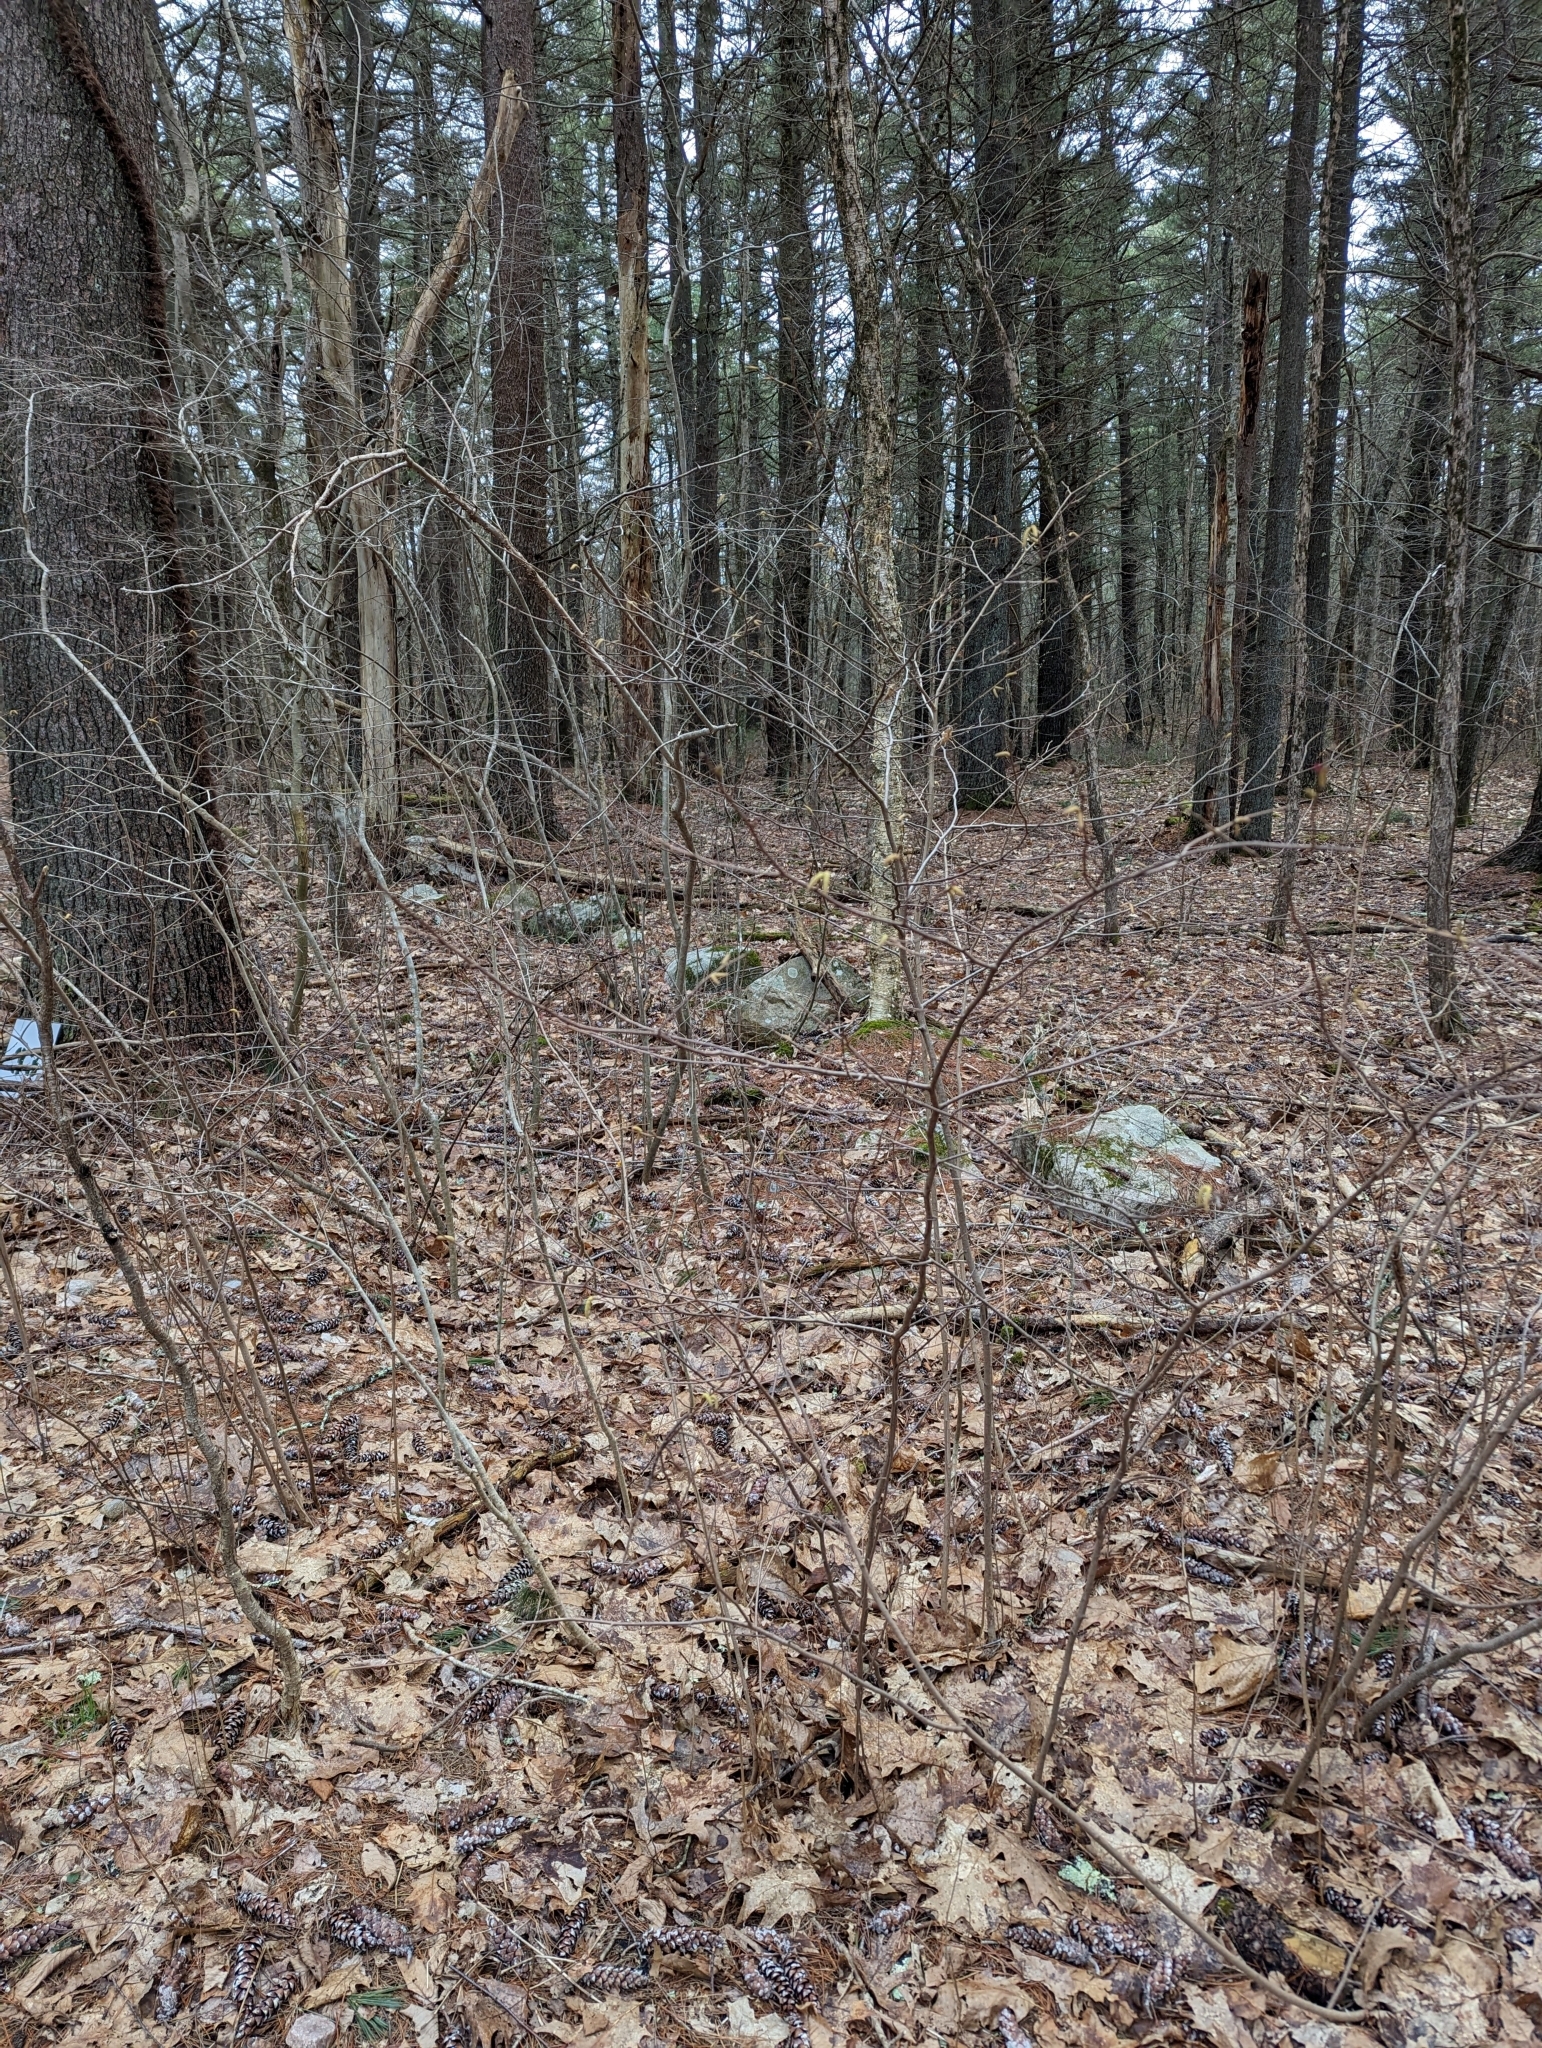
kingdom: Plantae
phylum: Tracheophyta
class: Magnoliopsida
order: Fagales
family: Betulaceae
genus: Corylus
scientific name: Corylus cornuta
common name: Beaked hazel
